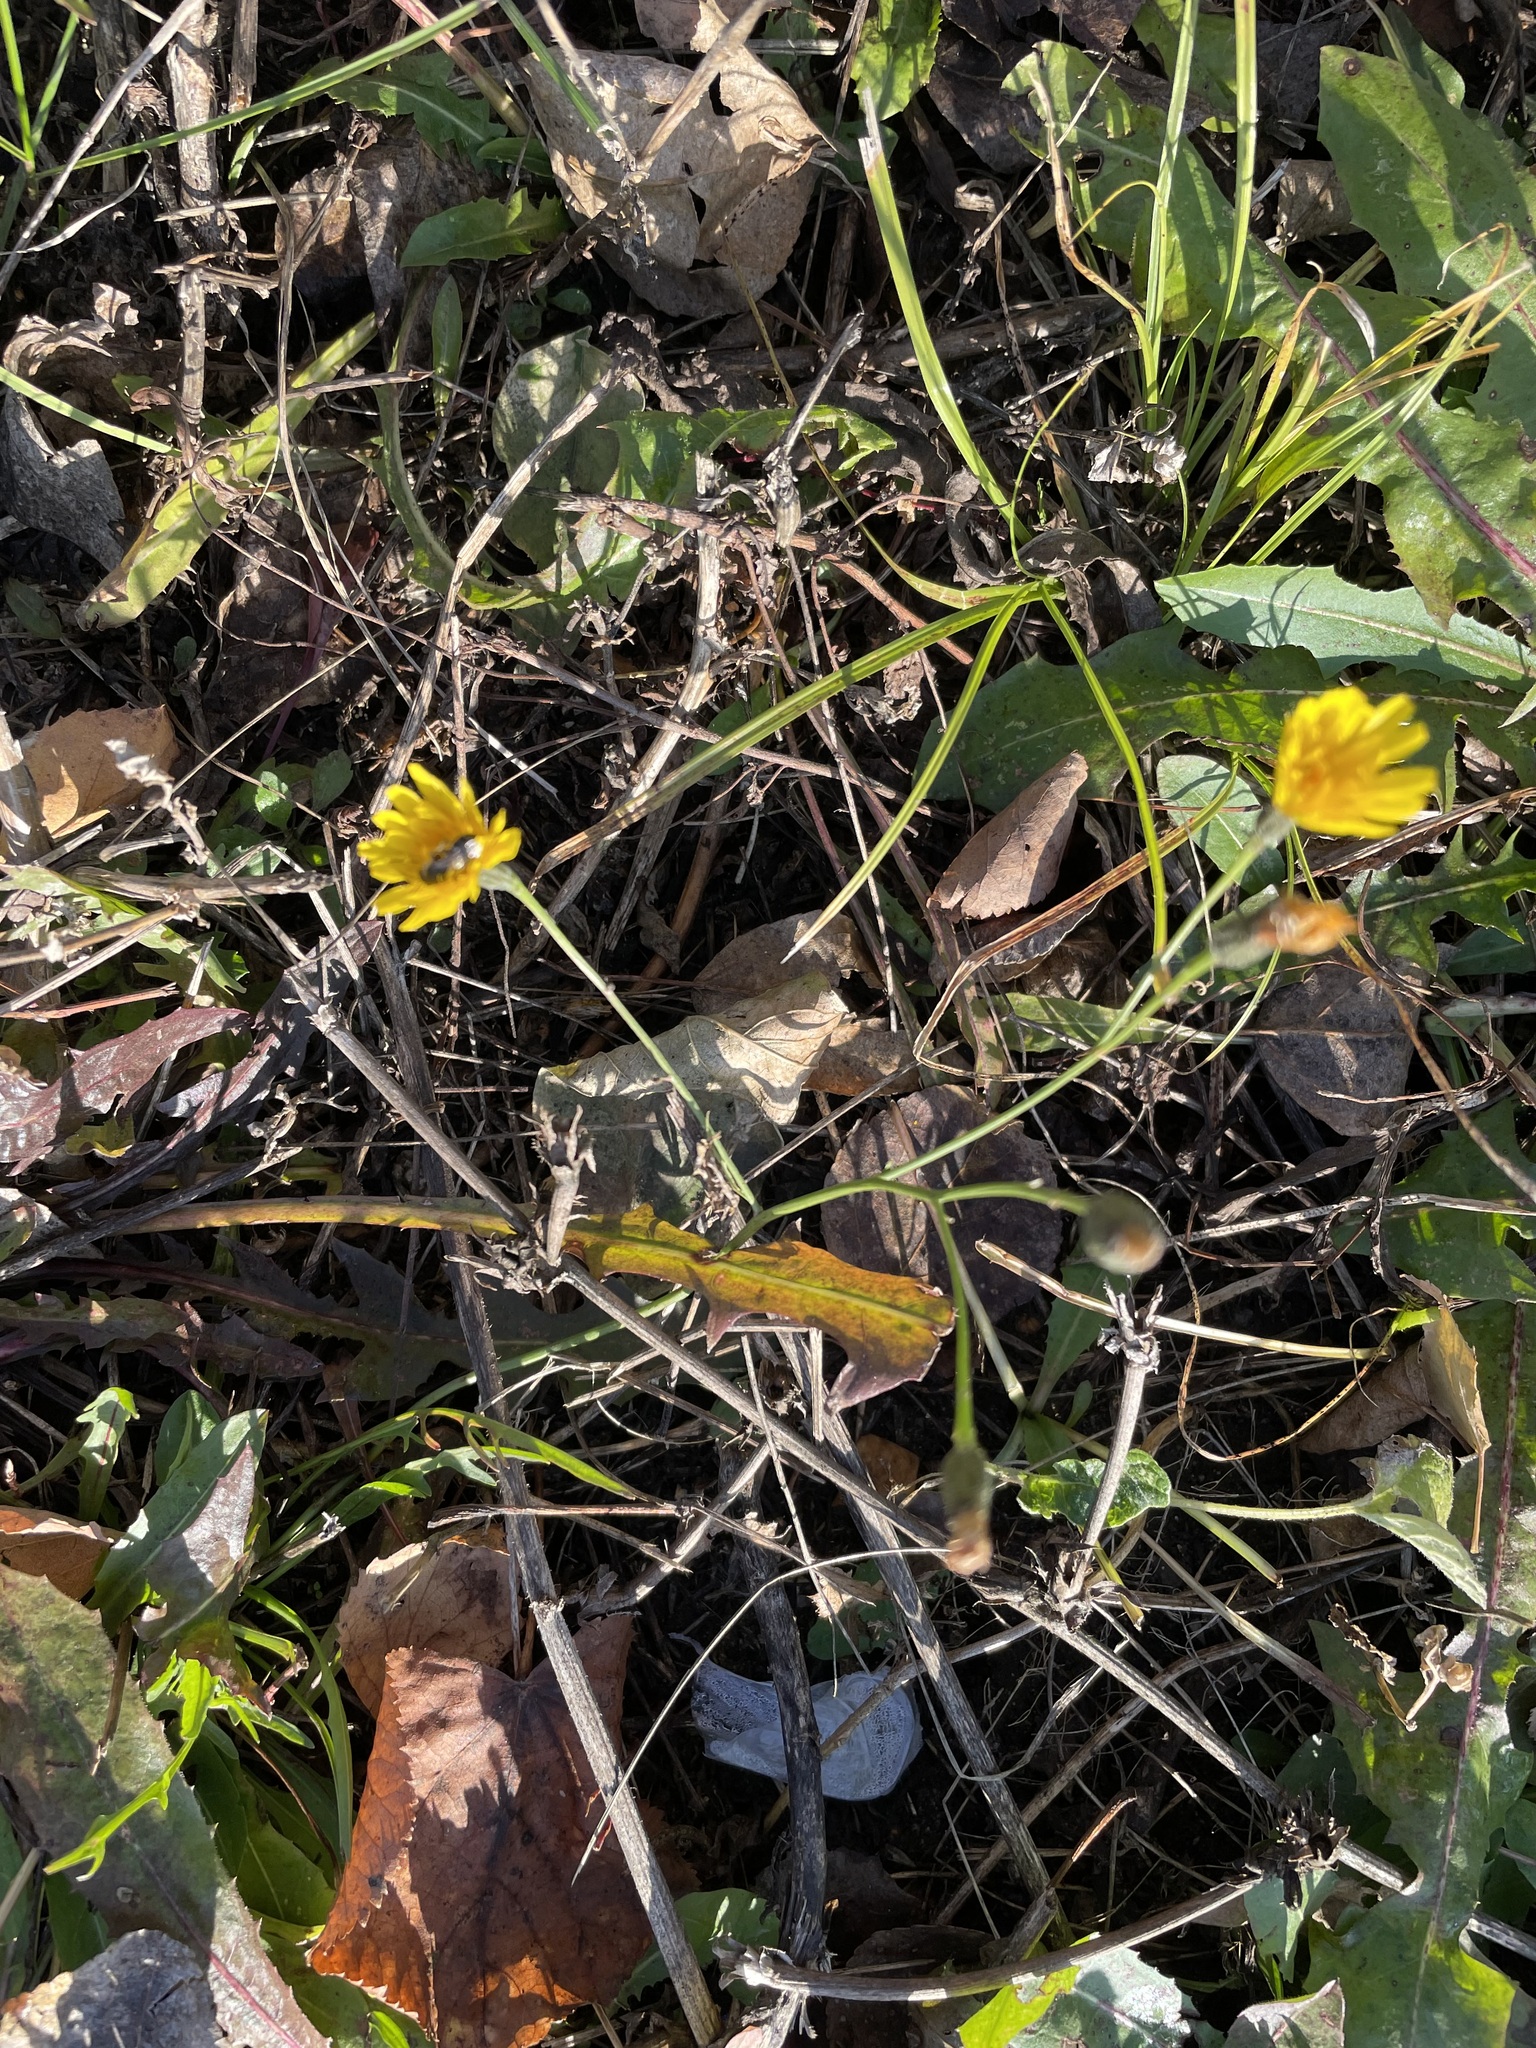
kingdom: Plantae
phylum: Tracheophyta
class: Magnoliopsida
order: Asterales
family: Asteraceae
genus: Scorzoneroides
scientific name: Scorzoneroides autumnalis
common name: Autumn hawkbit
